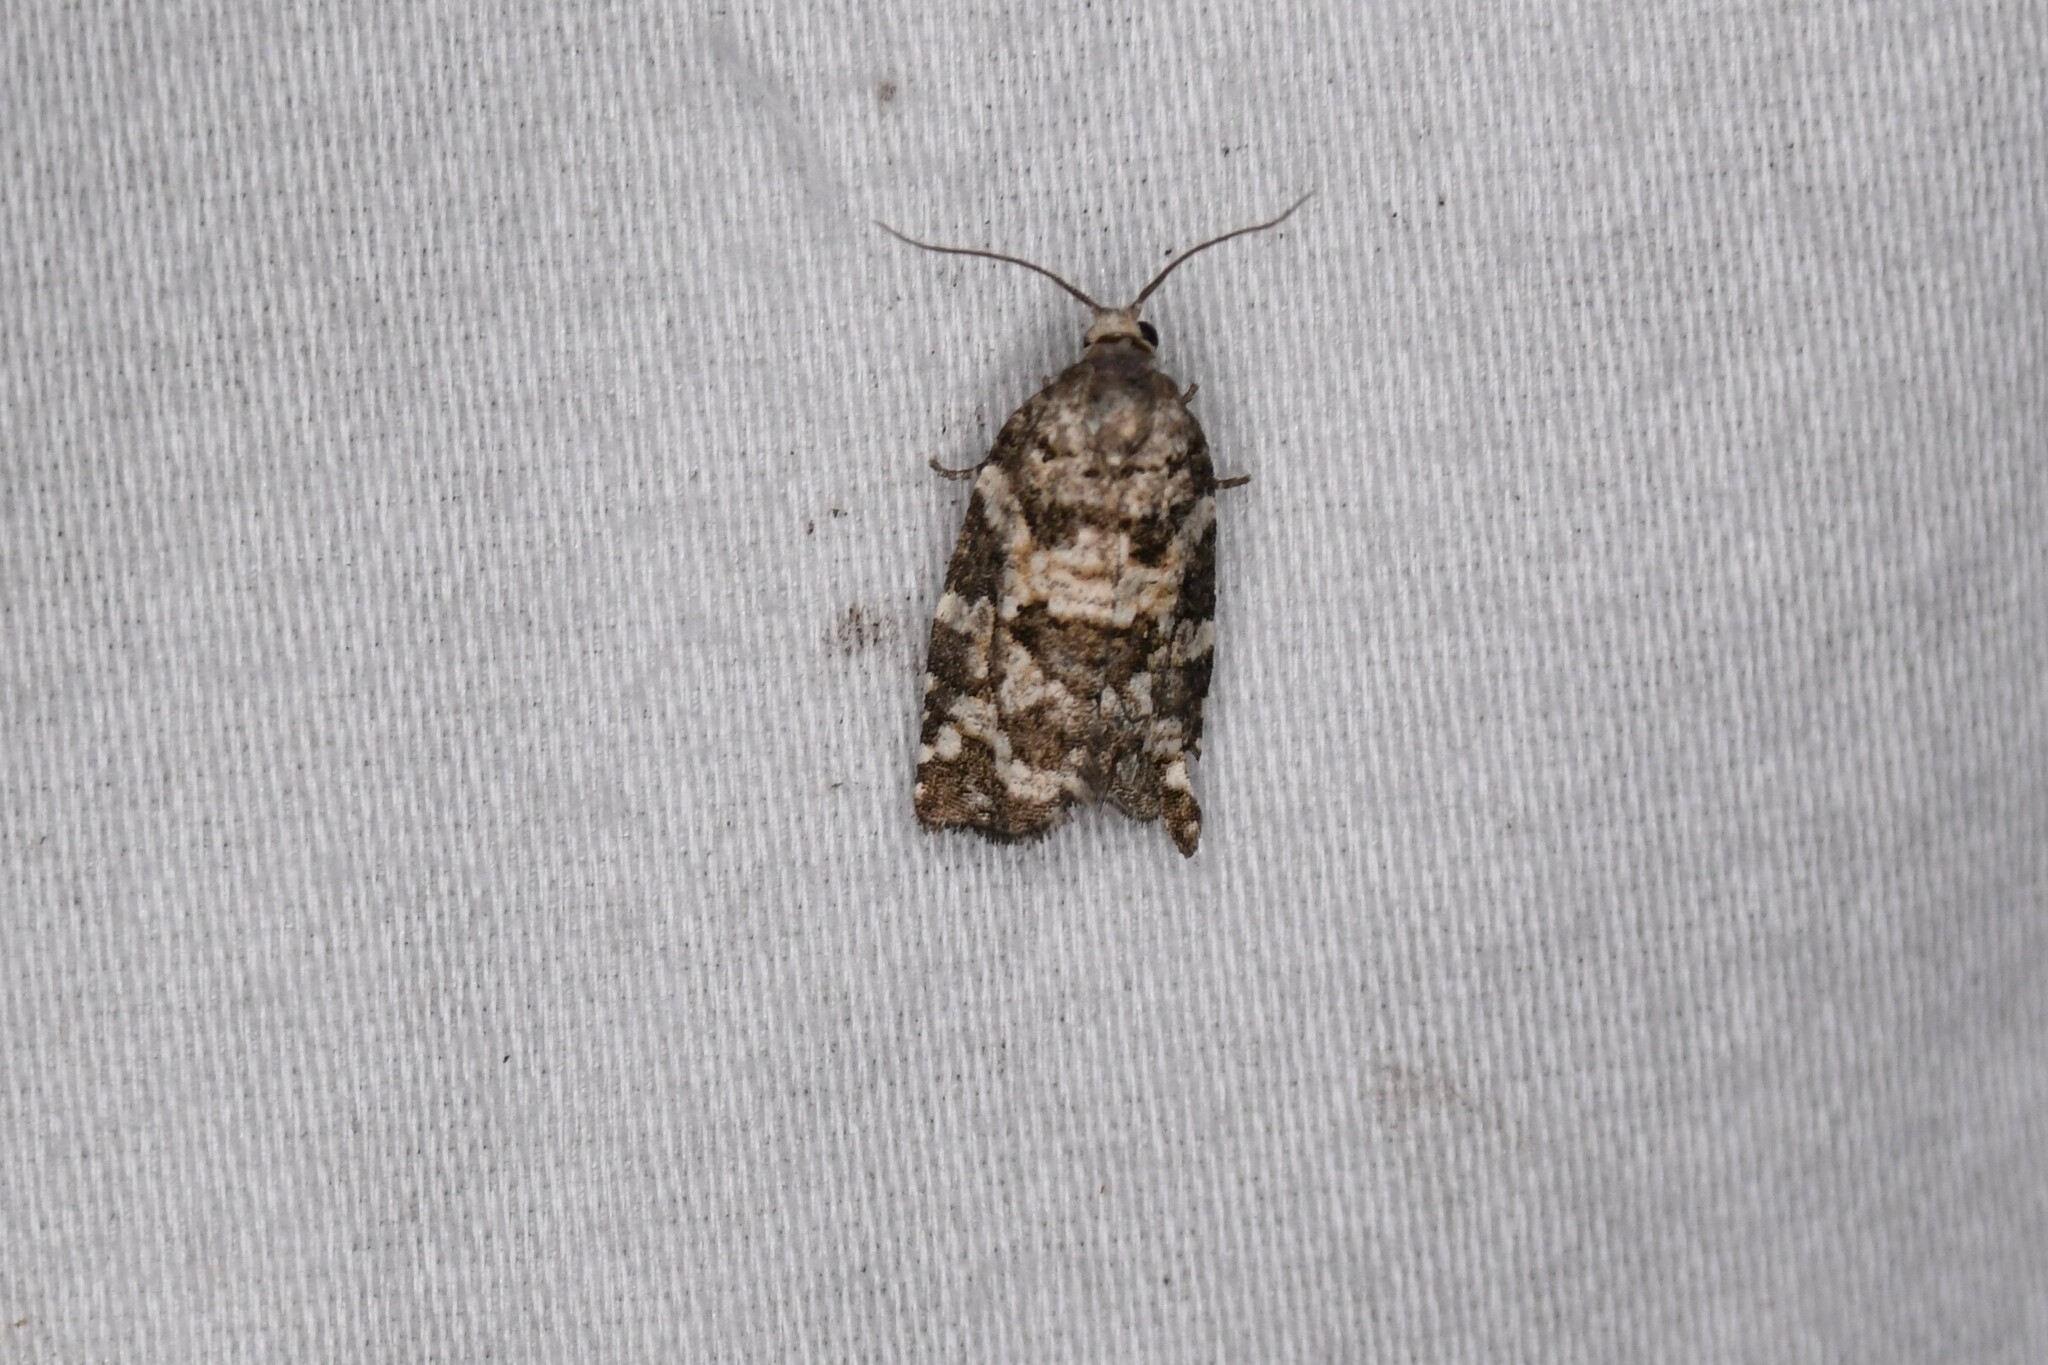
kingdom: Animalia
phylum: Arthropoda
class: Insecta
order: Lepidoptera
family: Tortricidae
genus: Archips
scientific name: Archips packardiana
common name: Spring spruce needle moth
